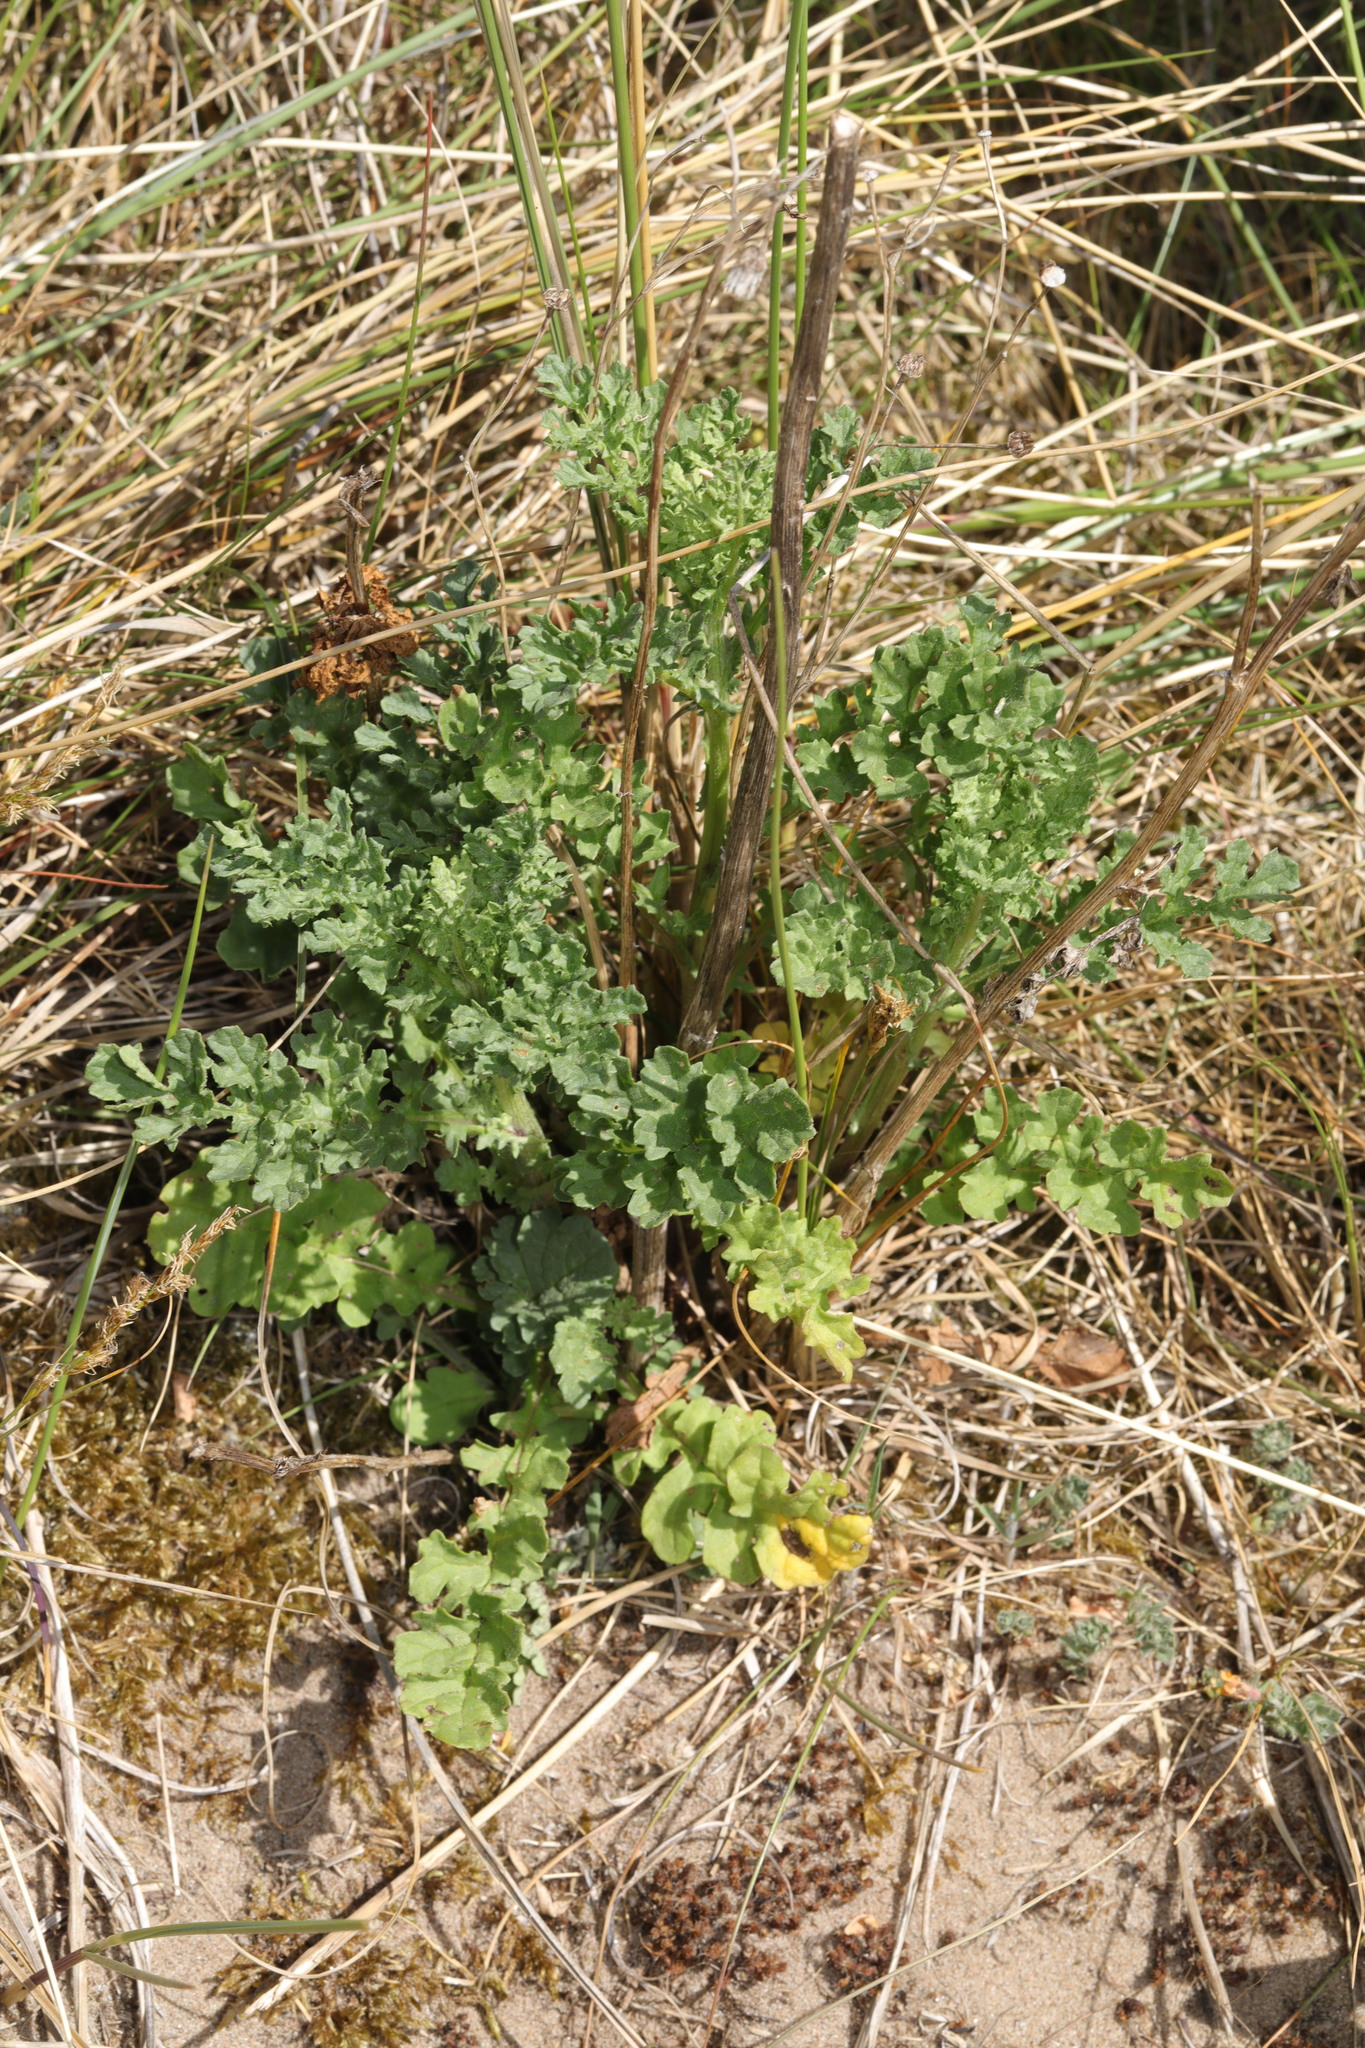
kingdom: Plantae
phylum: Tracheophyta
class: Magnoliopsida
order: Asterales
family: Asteraceae
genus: Jacobaea
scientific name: Jacobaea vulgaris
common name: Stinking willie
